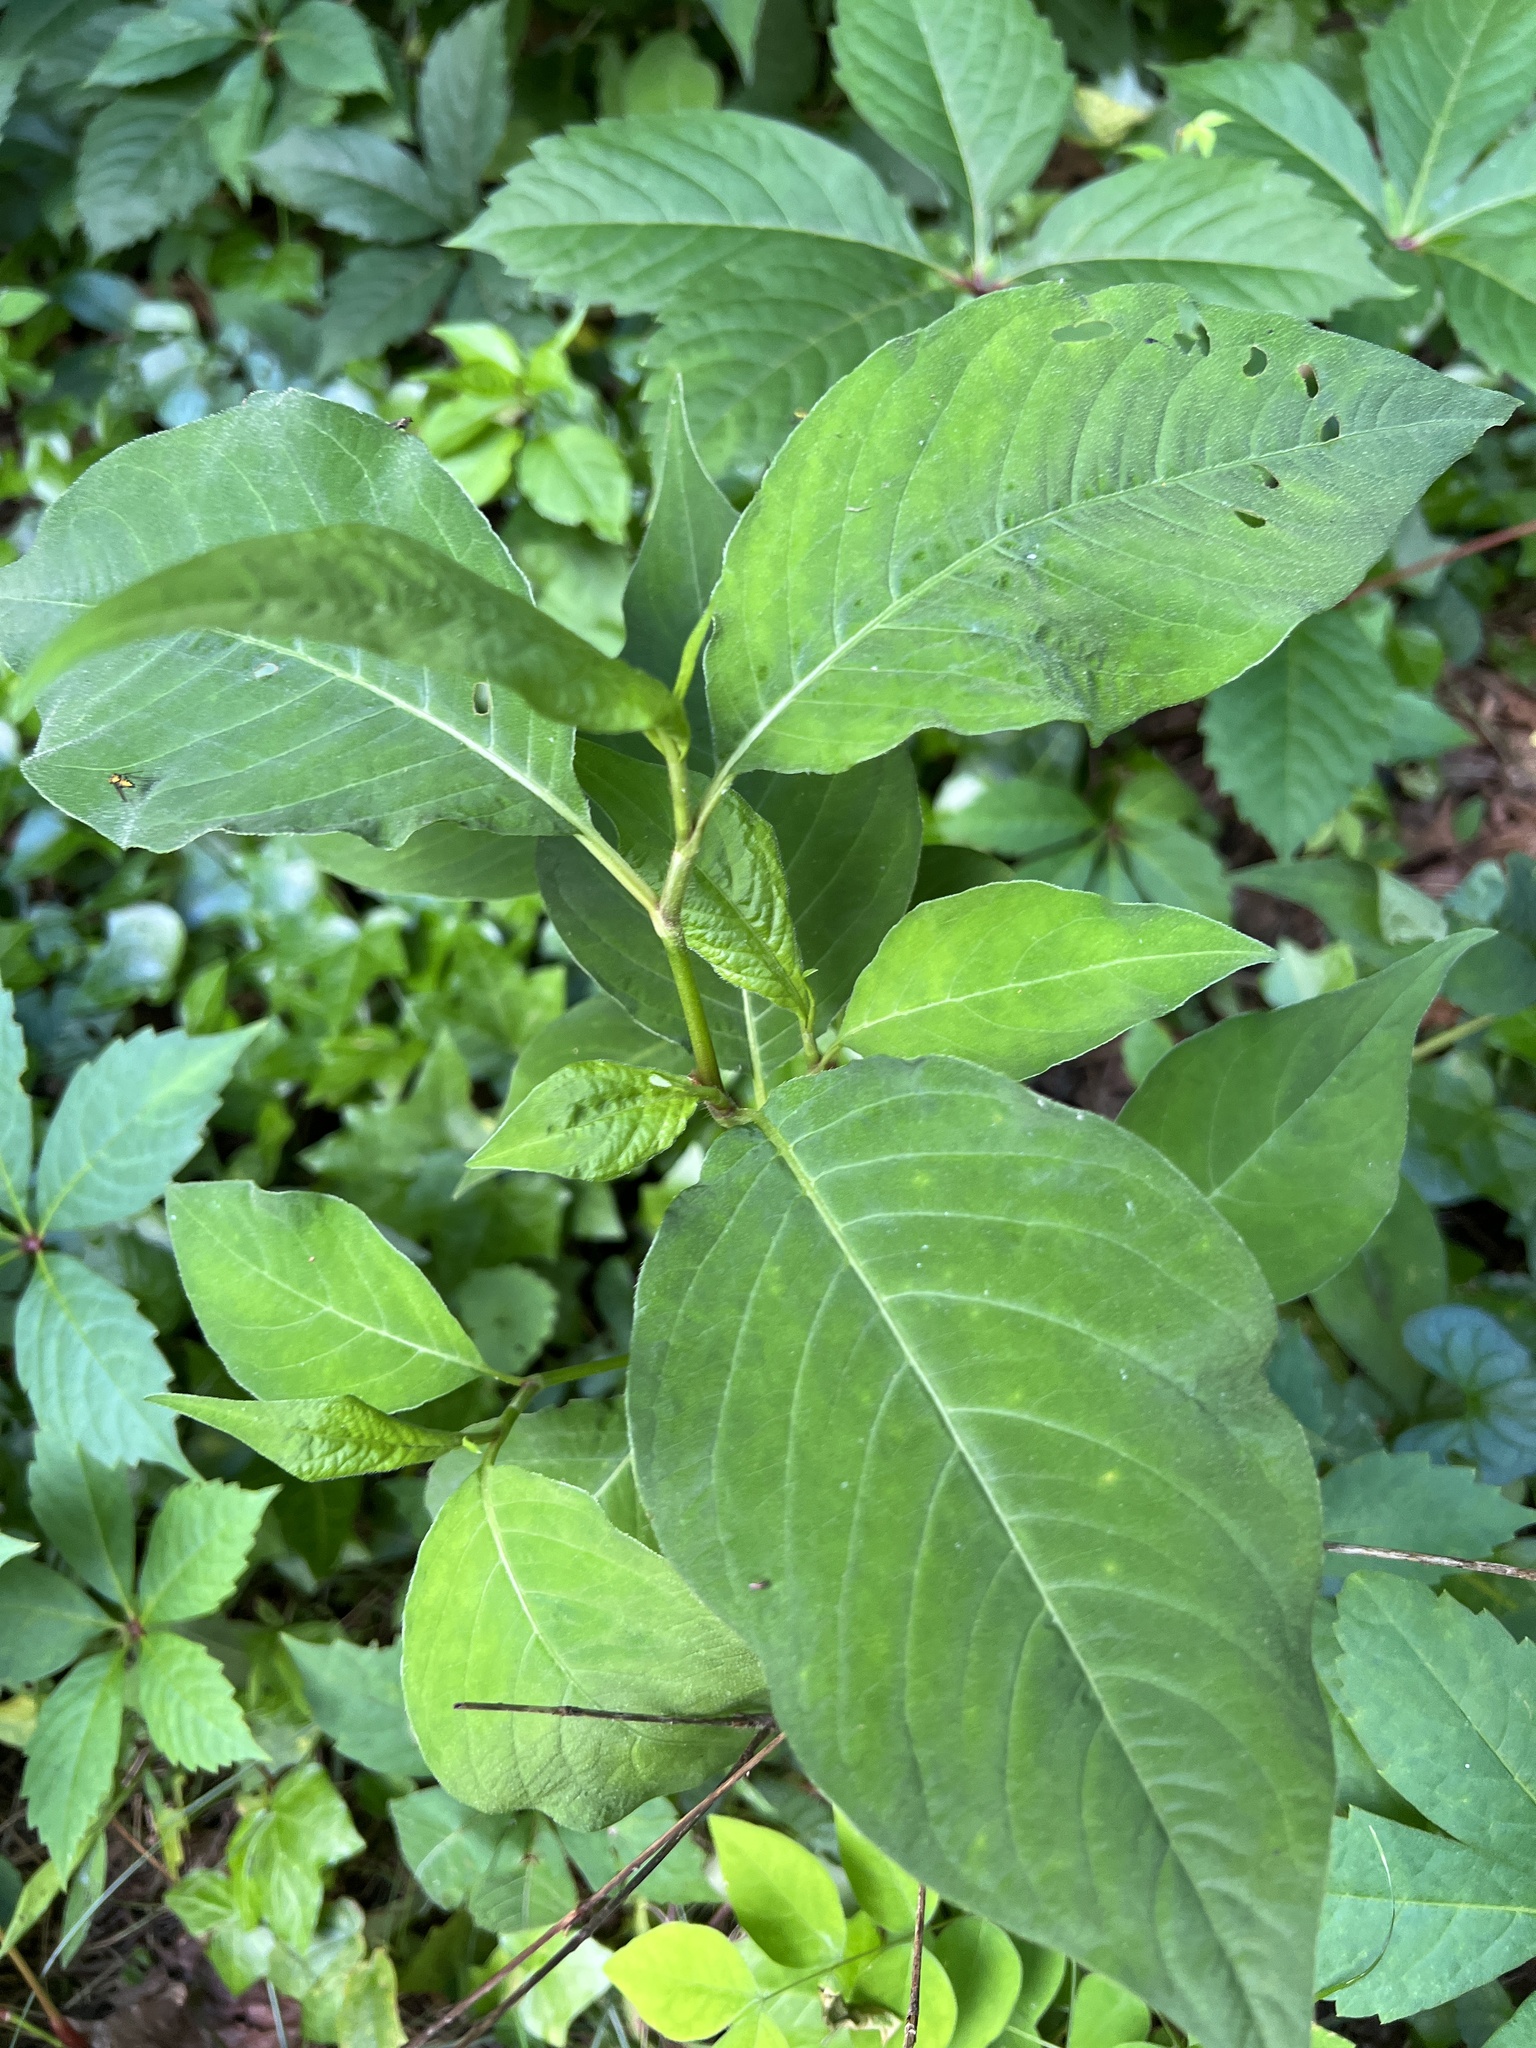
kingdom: Plantae
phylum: Tracheophyta
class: Magnoliopsida
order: Caryophyllales
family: Polygonaceae
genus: Persicaria
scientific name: Persicaria virginiana
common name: Jumpseed
